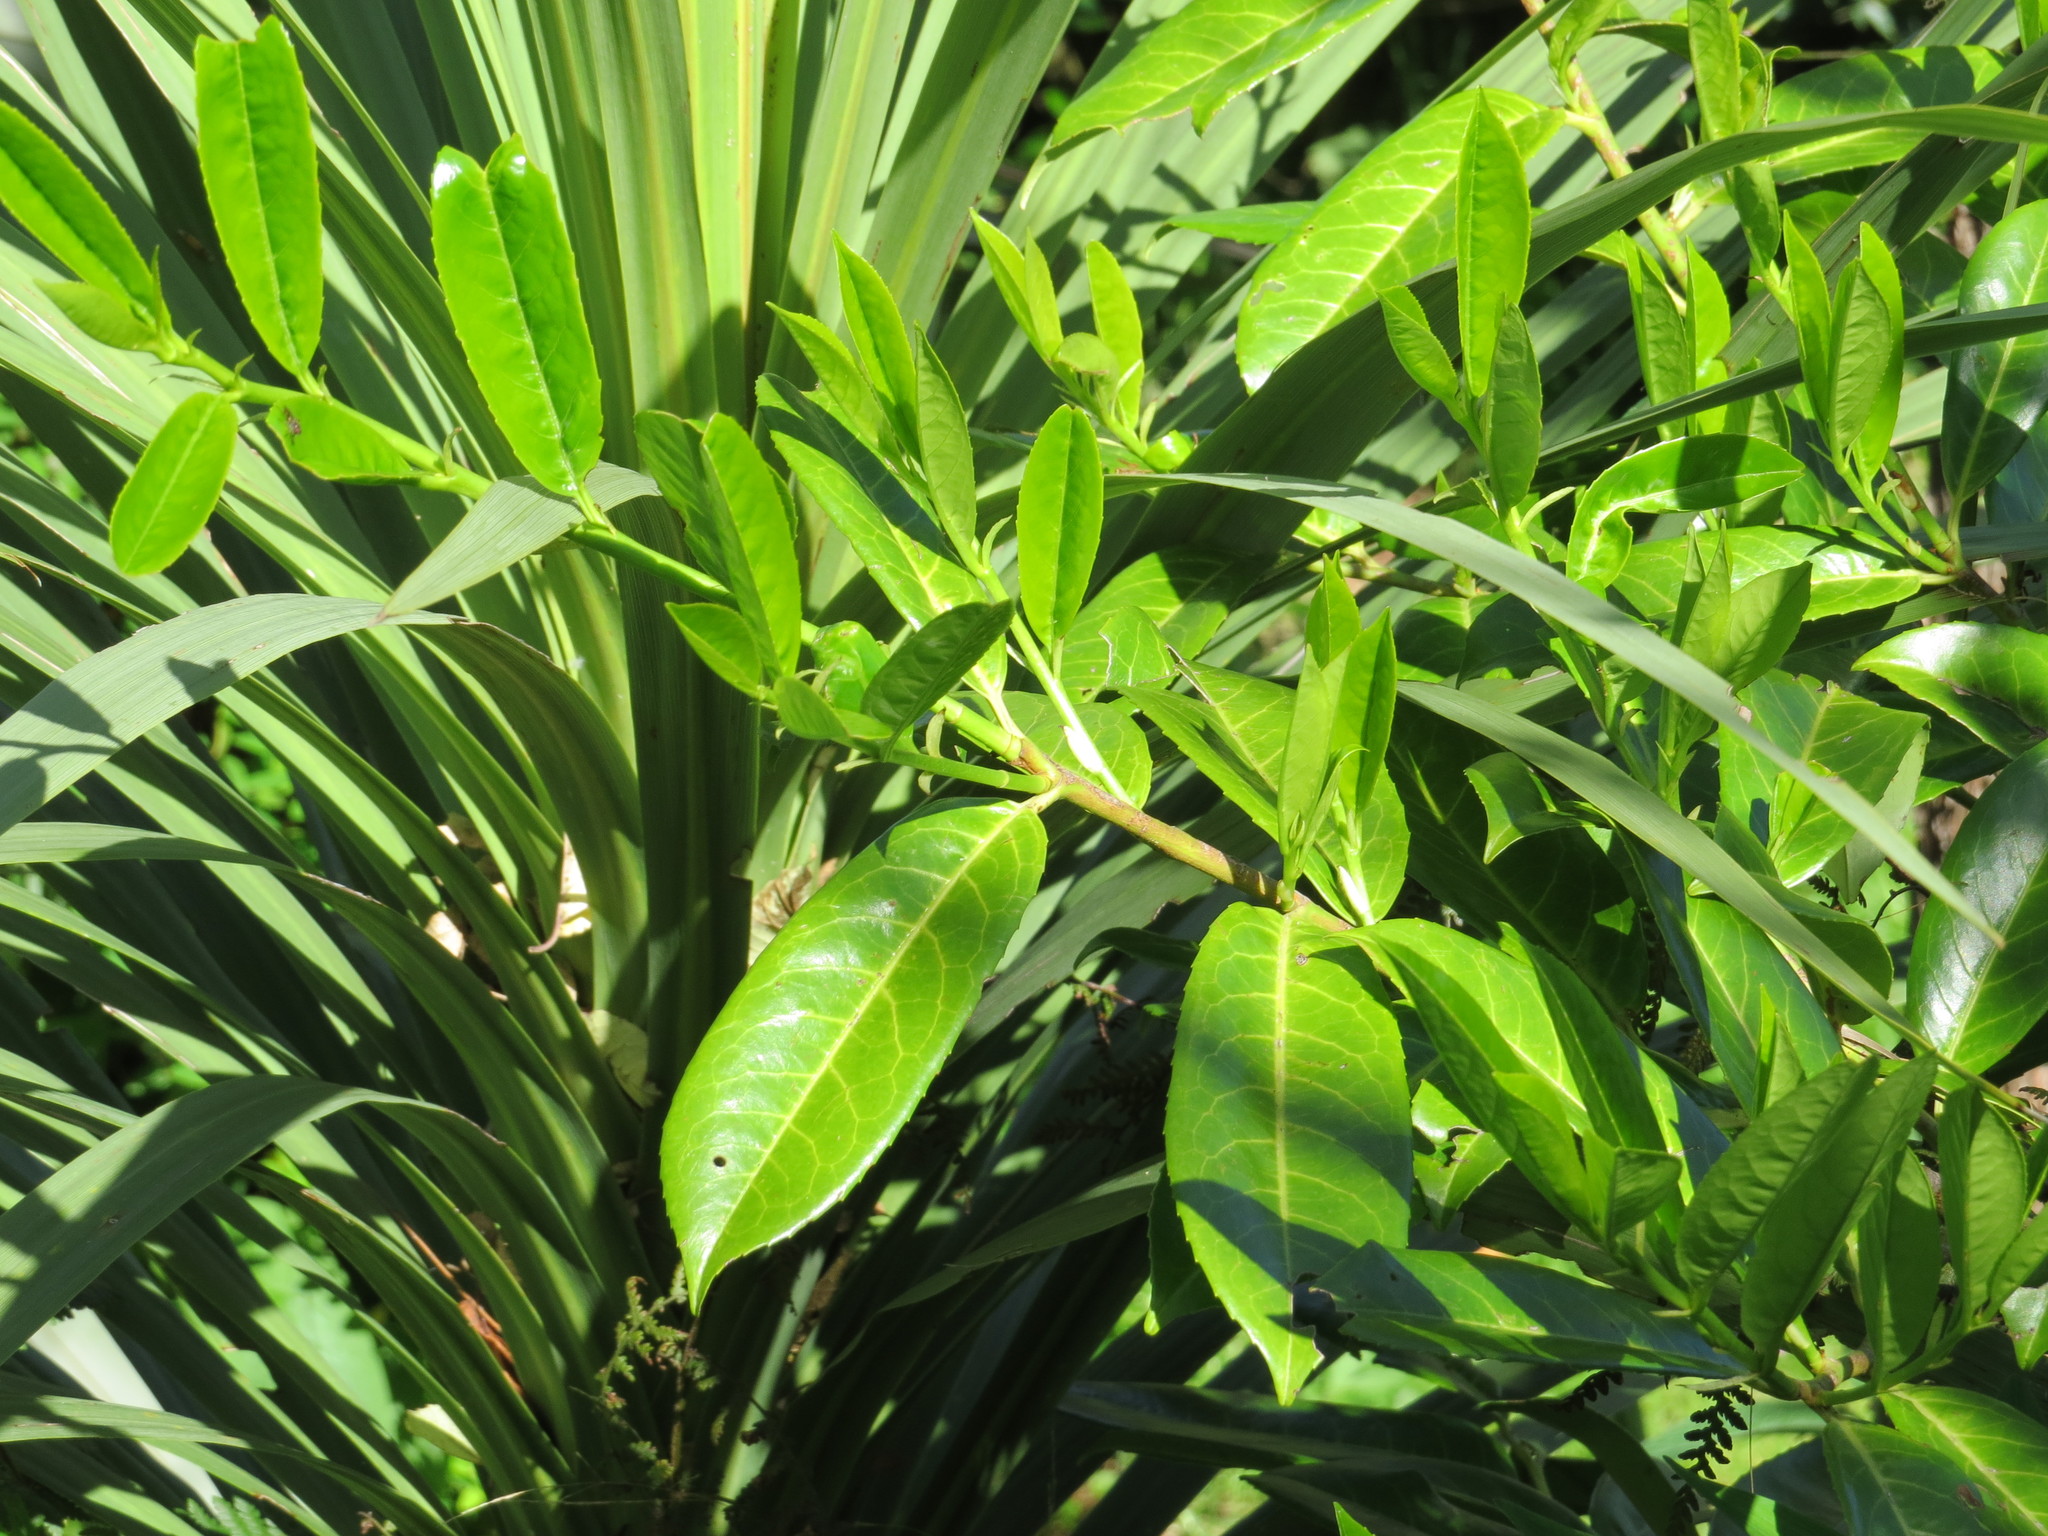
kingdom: Plantae
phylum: Tracheophyta
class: Magnoliopsida
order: Rosales
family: Rosaceae
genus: Prunus
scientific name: Prunus laurocerasus
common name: Cherry laurel
